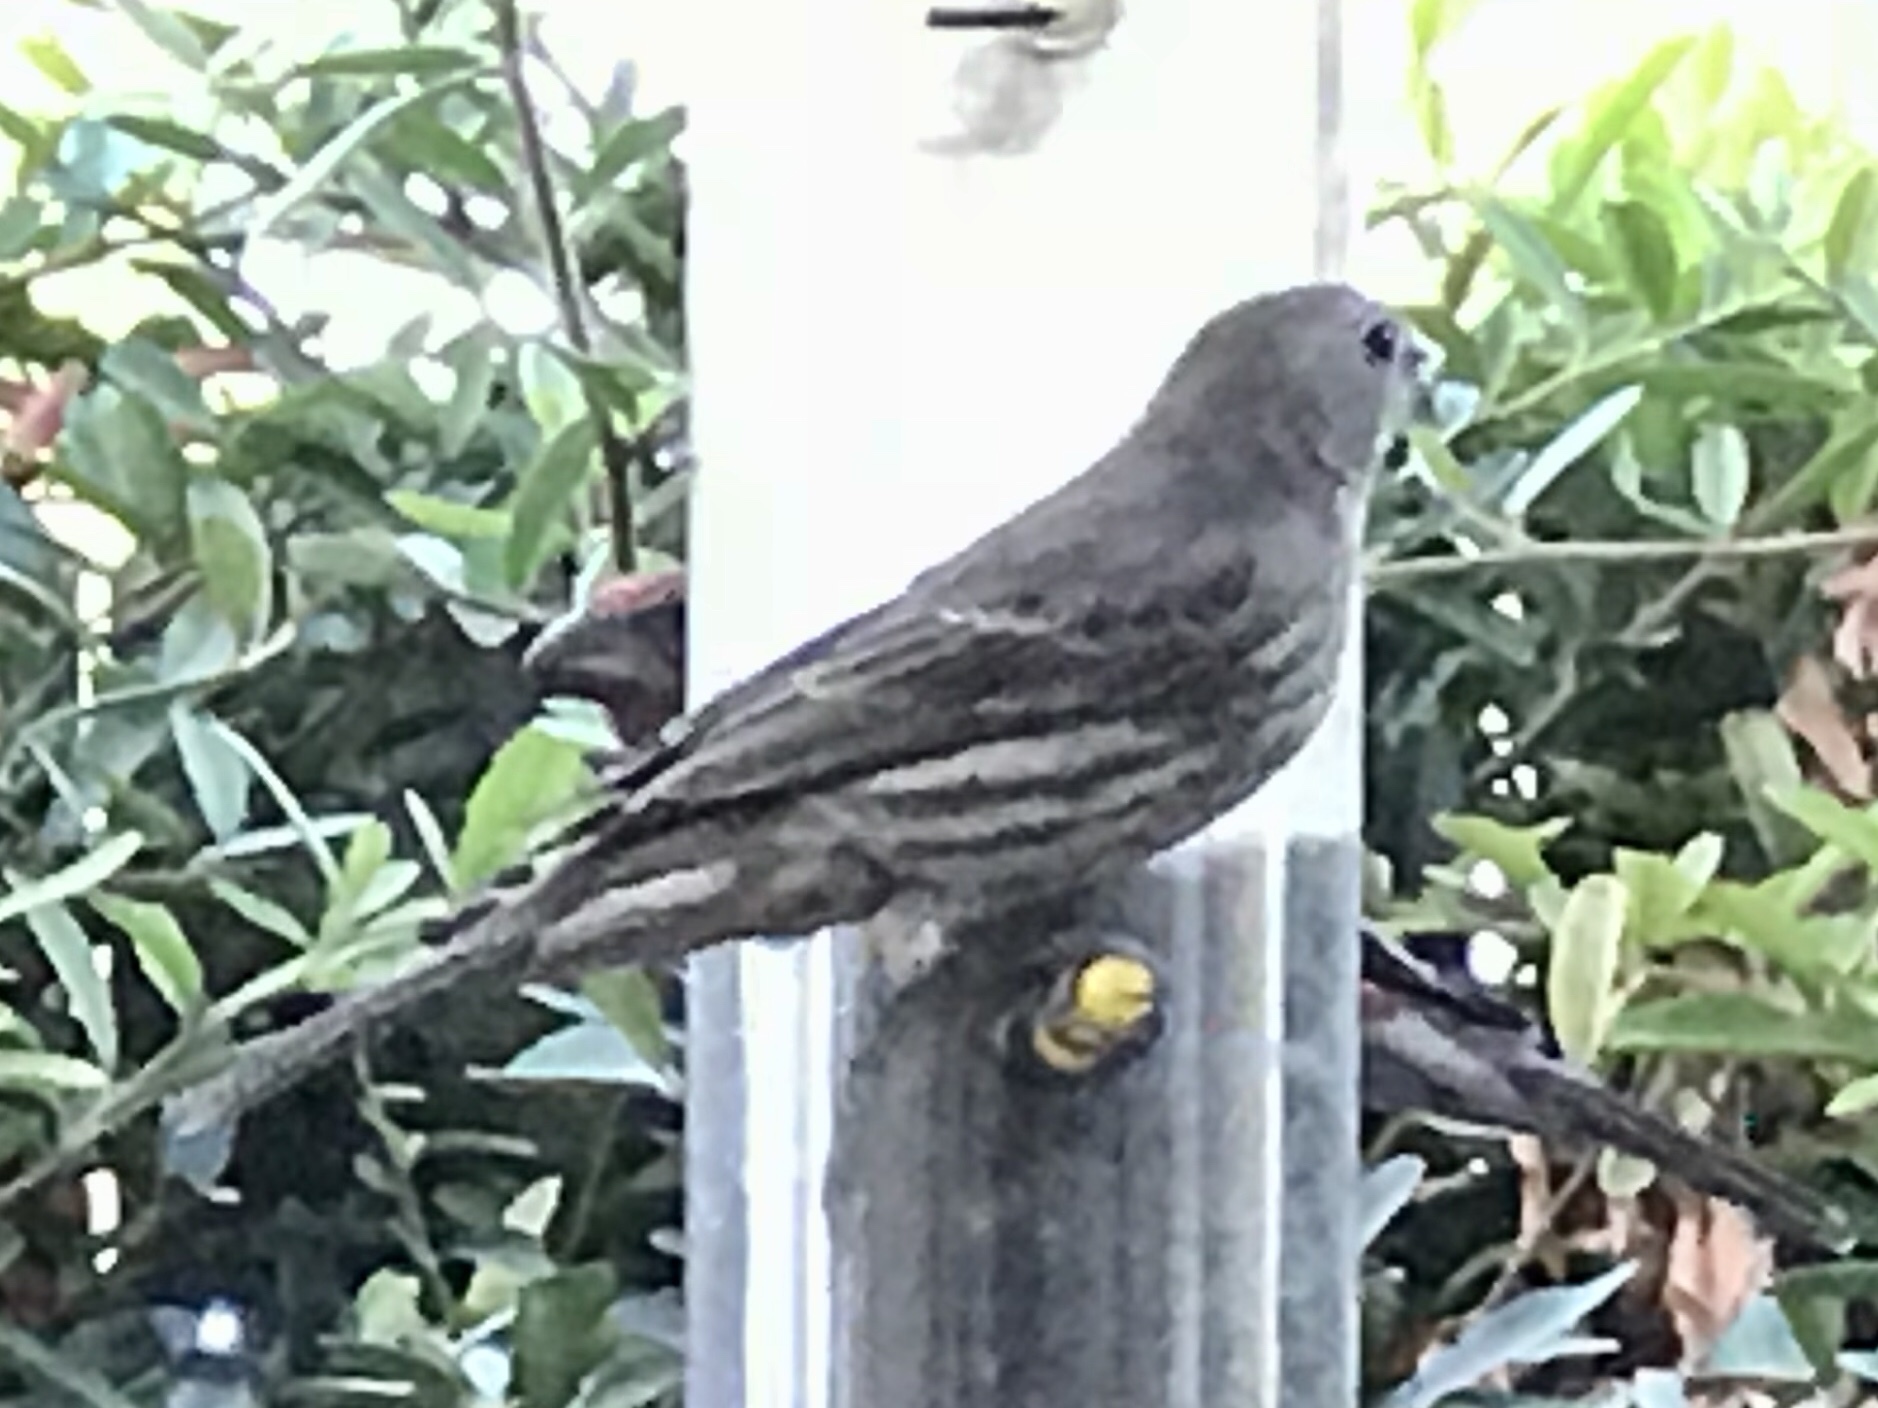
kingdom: Animalia
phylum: Chordata
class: Aves
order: Passeriformes
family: Fringillidae
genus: Haemorhous
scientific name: Haemorhous mexicanus
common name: House finch
